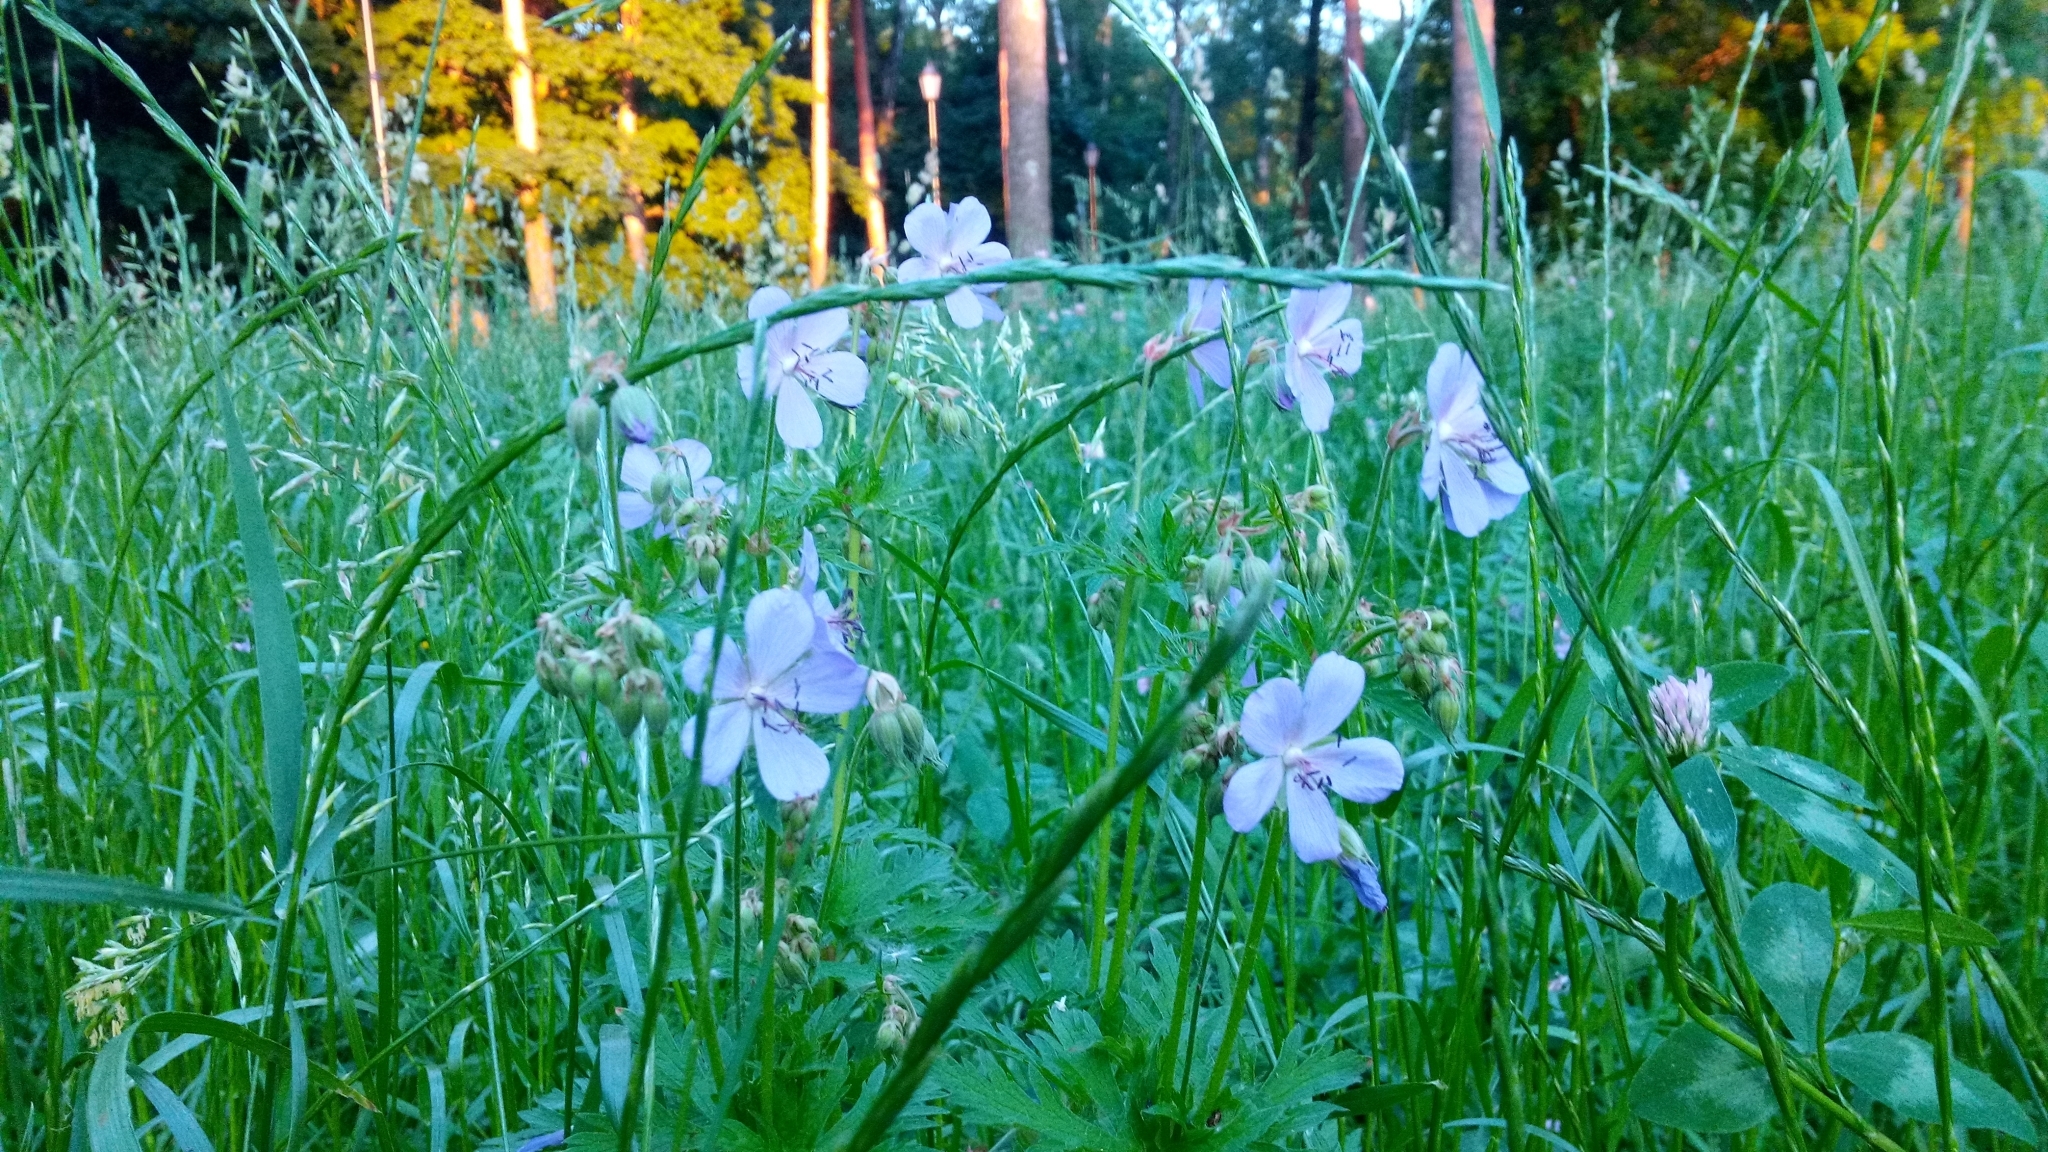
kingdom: Plantae
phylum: Tracheophyta
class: Magnoliopsida
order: Geraniales
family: Geraniaceae
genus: Geranium
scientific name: Geranium pratense
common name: Meadow crane's-bill
